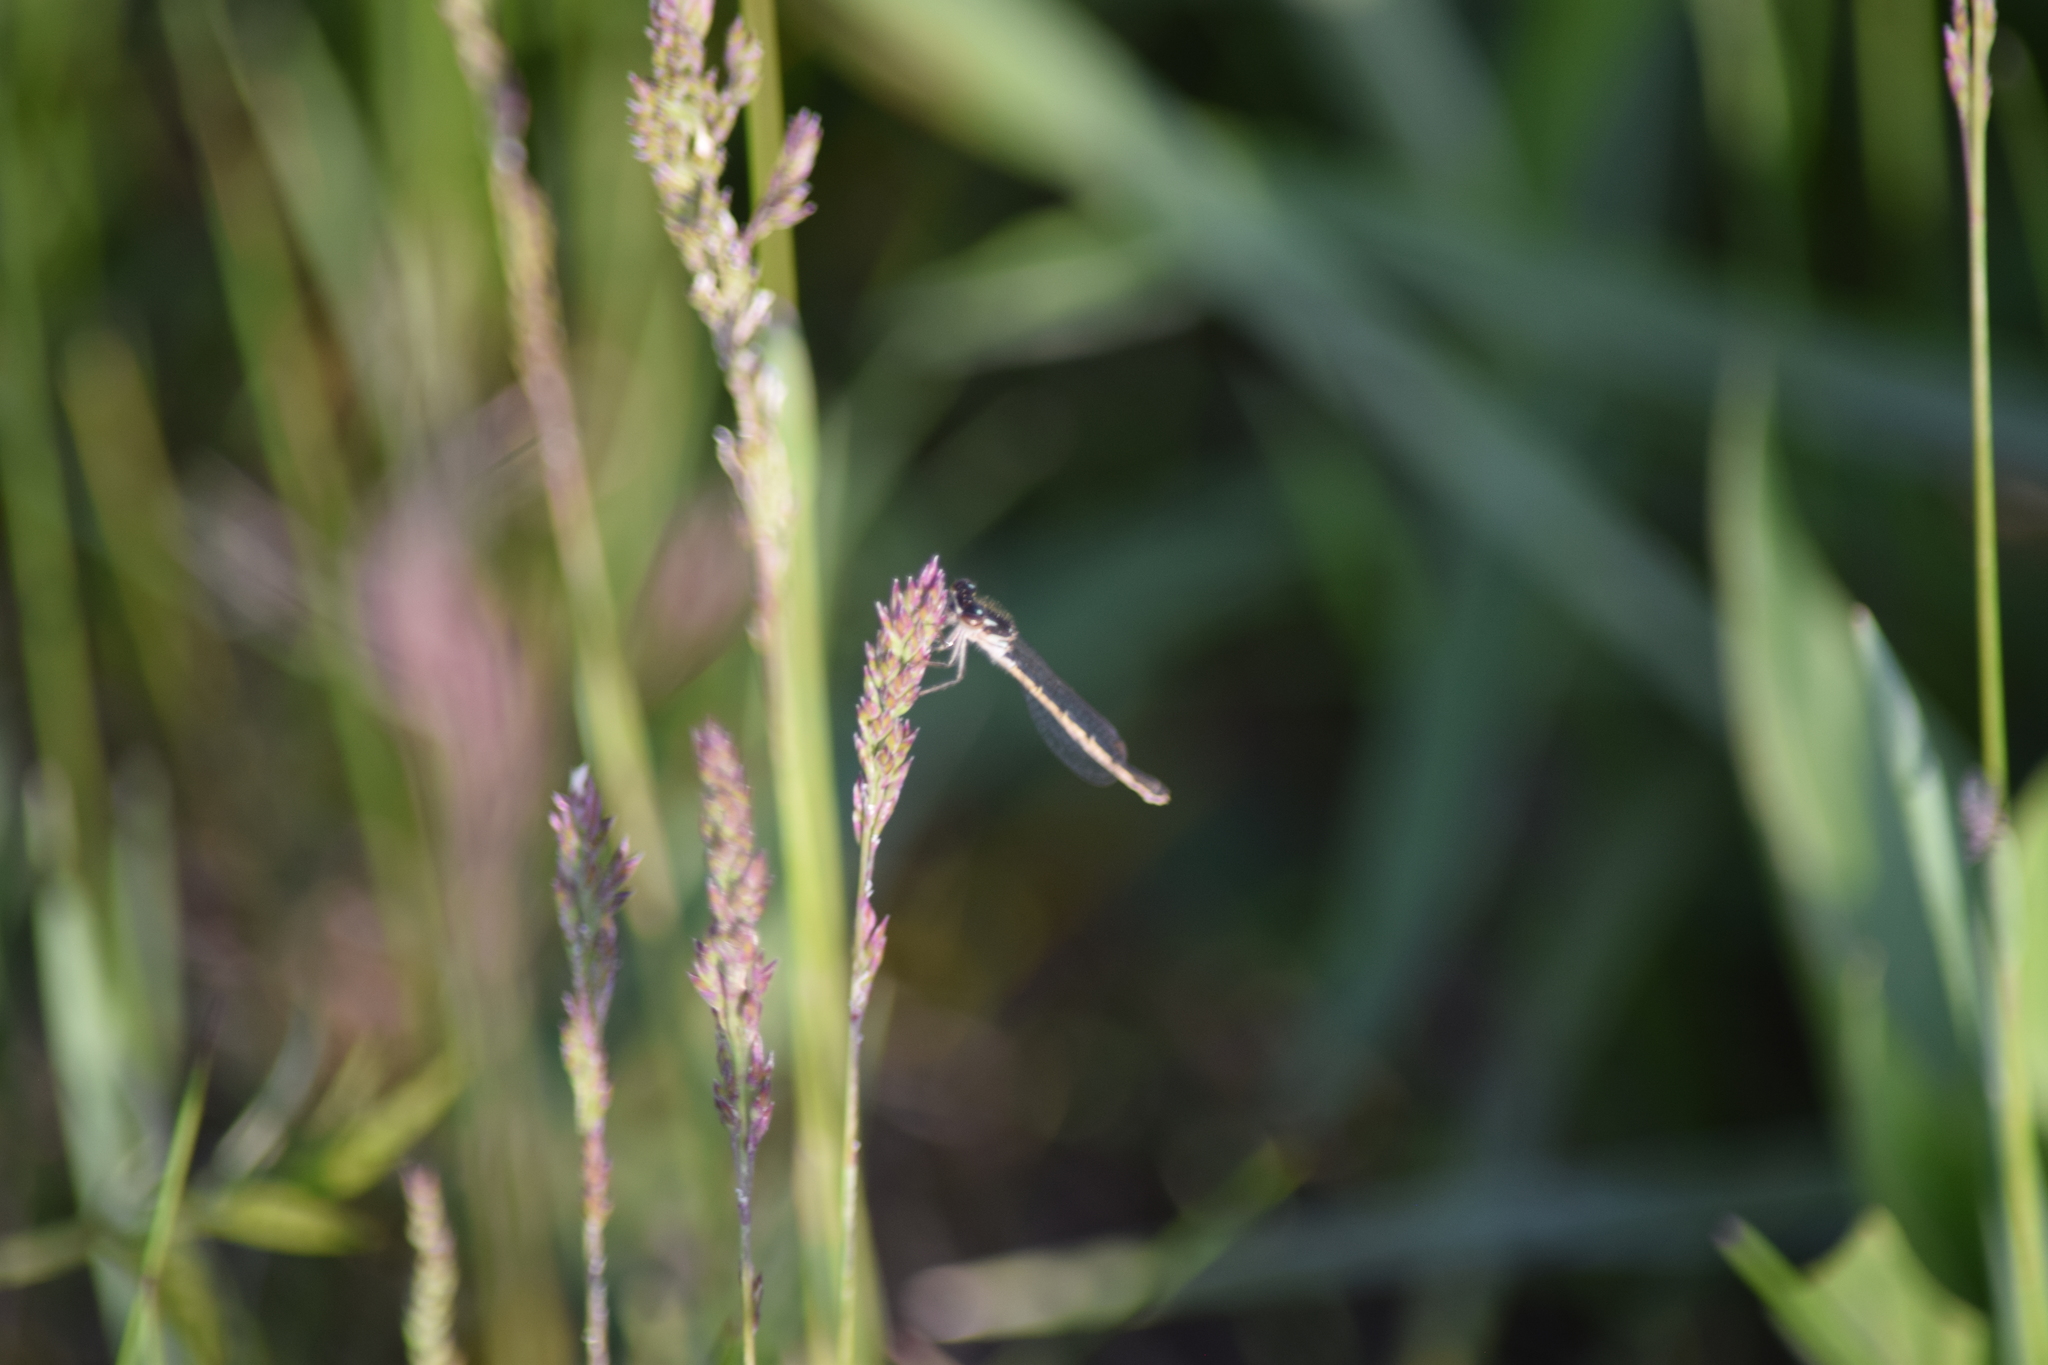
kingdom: Animalia
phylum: Arthropoda
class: Insecta
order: Odonata
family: Coenagrionidae
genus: Ischnura
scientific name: Ischnura posita
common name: Fragile forktail
